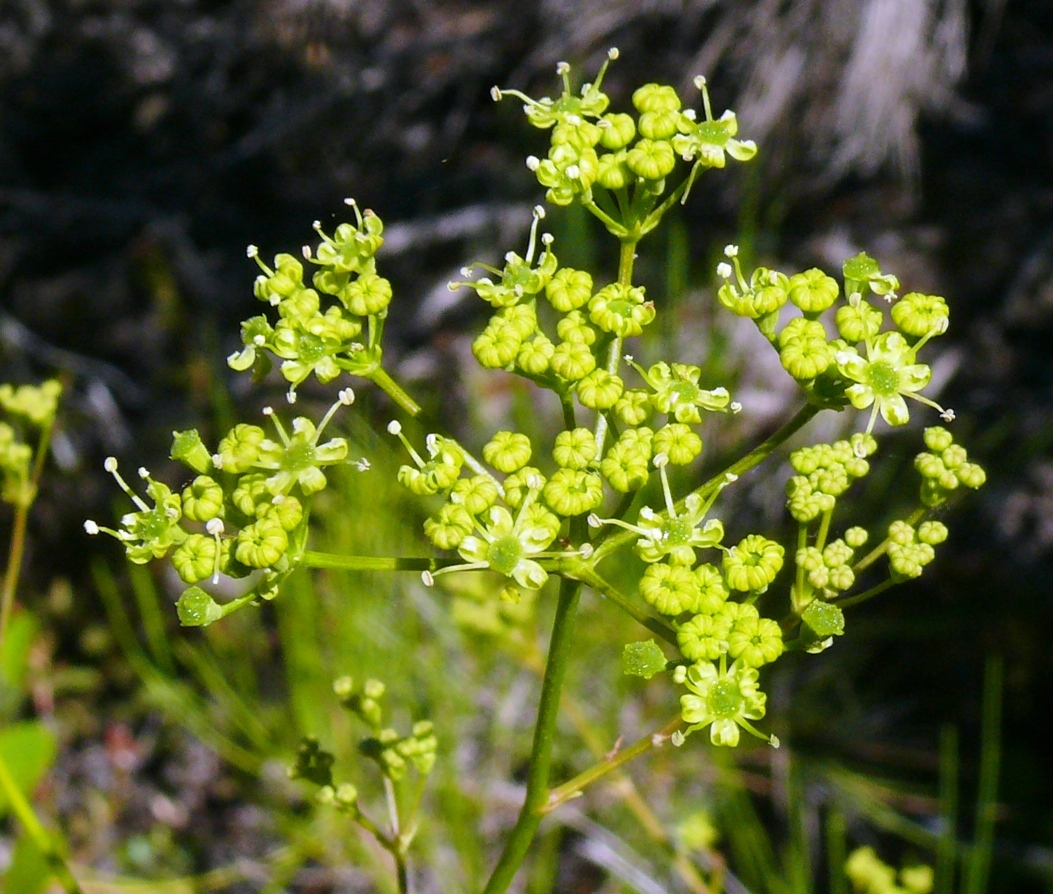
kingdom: Plantae
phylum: Tracheophyta
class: Magnoliopsida
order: Apiales
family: Apiaceae
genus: Anginon
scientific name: Anginon difforme
